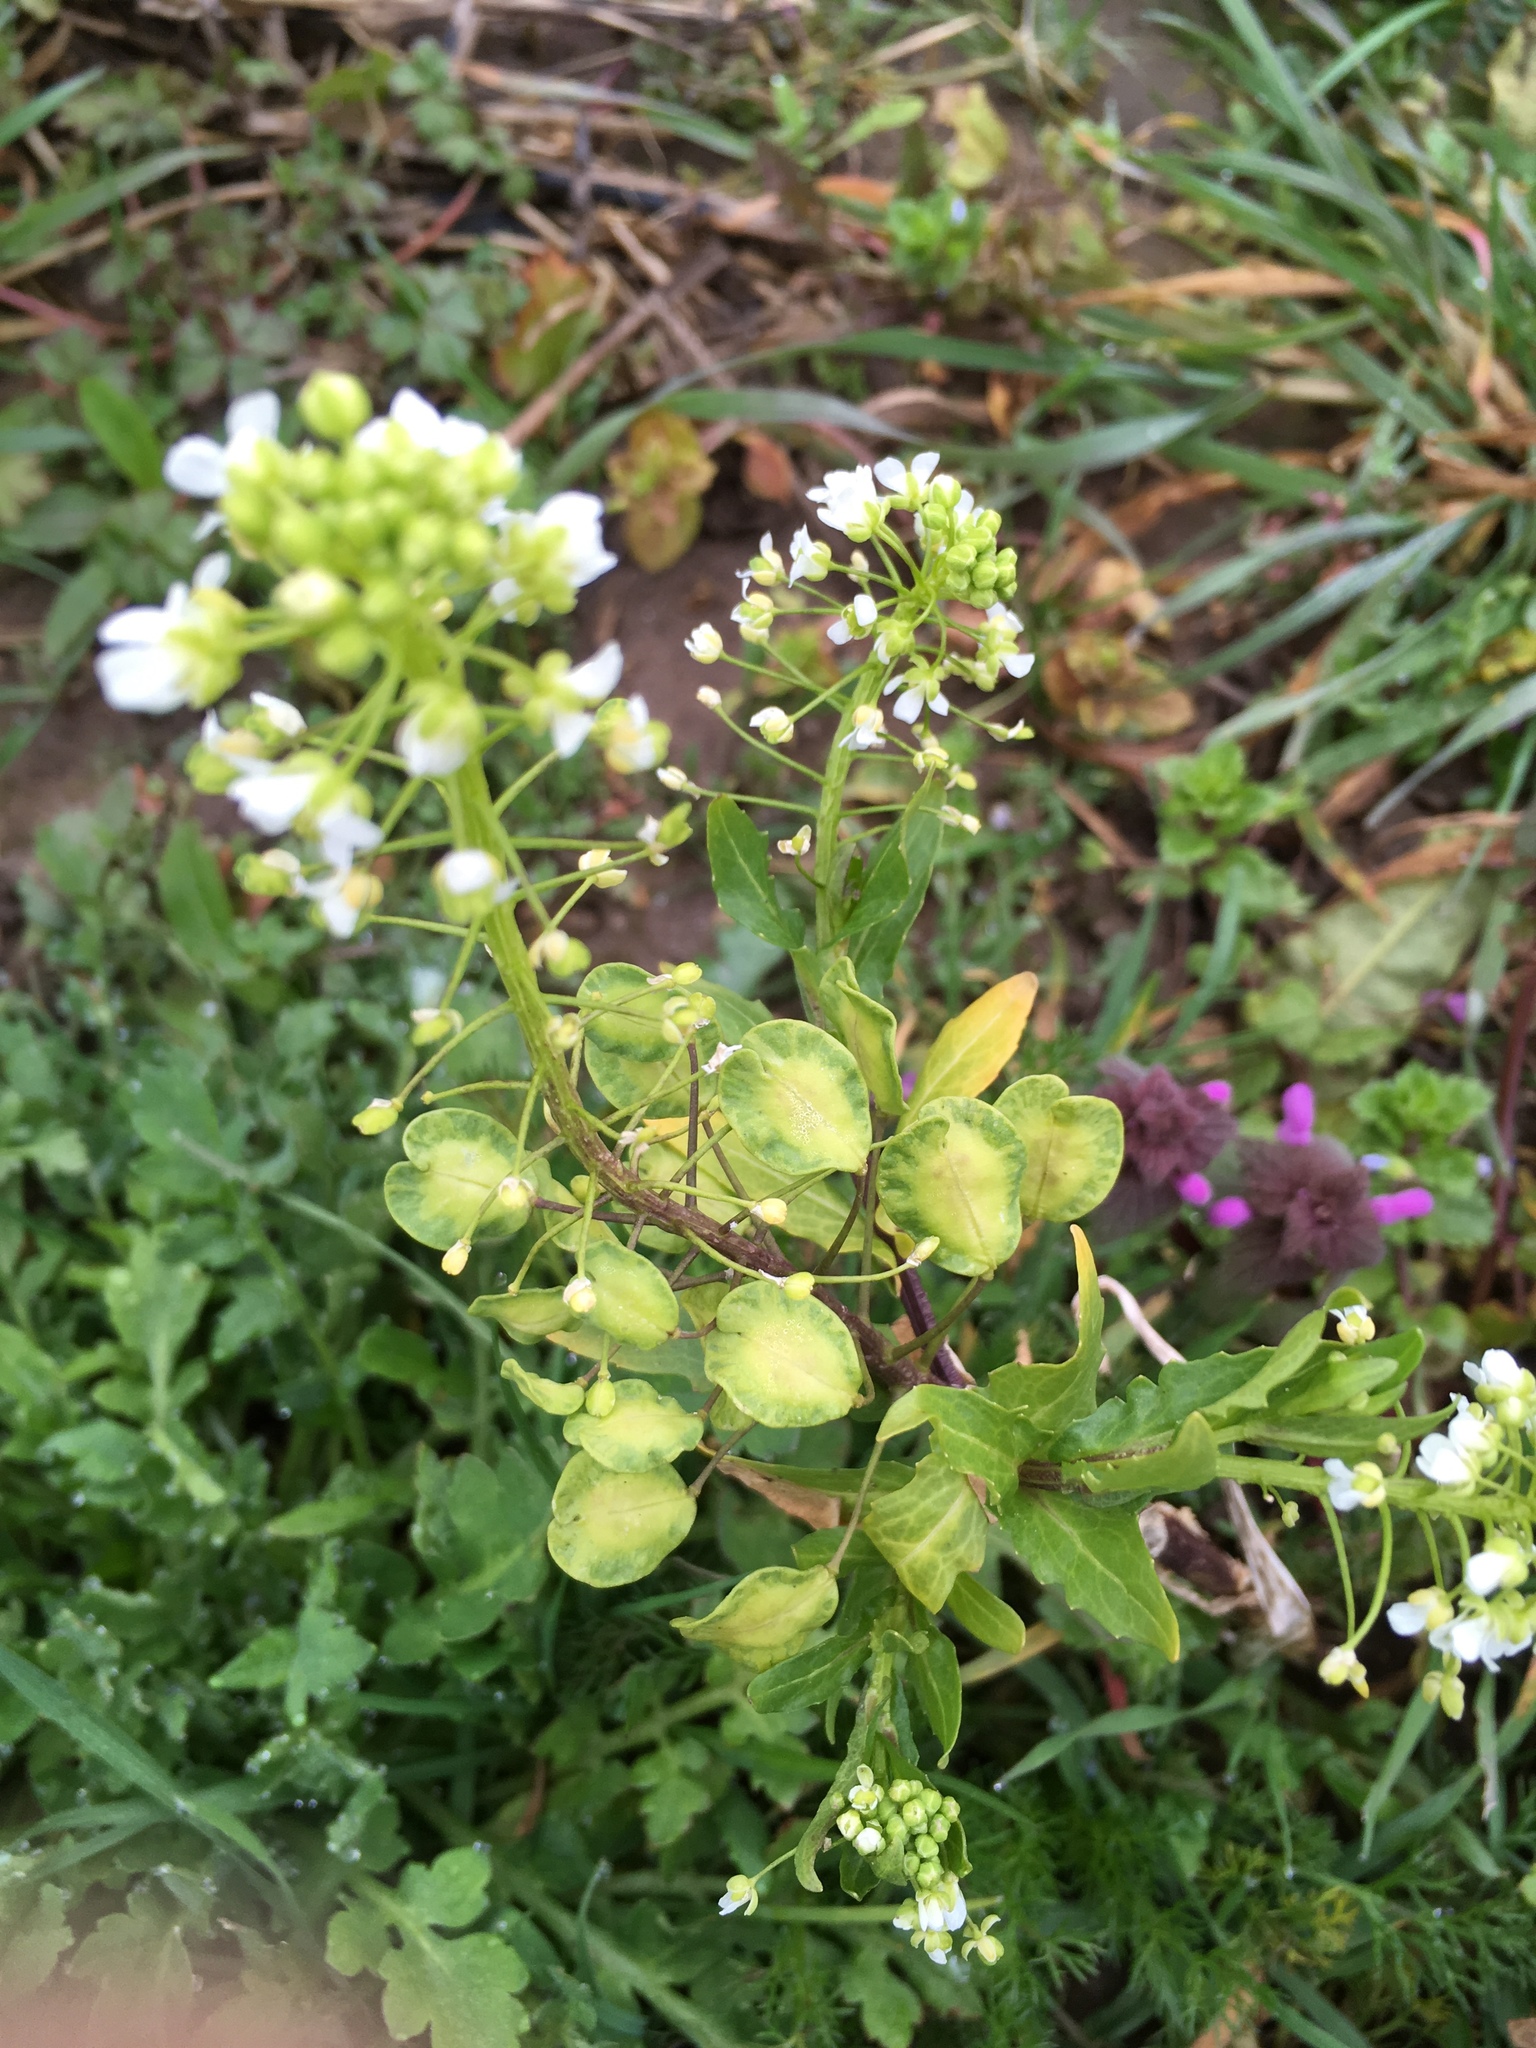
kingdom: Plantae
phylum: Tracheophyta
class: Magnoliopsida
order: Brassicales
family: Brassicaceae
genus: Thlaspi
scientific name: Thlaspi arvense
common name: Field pennycress
